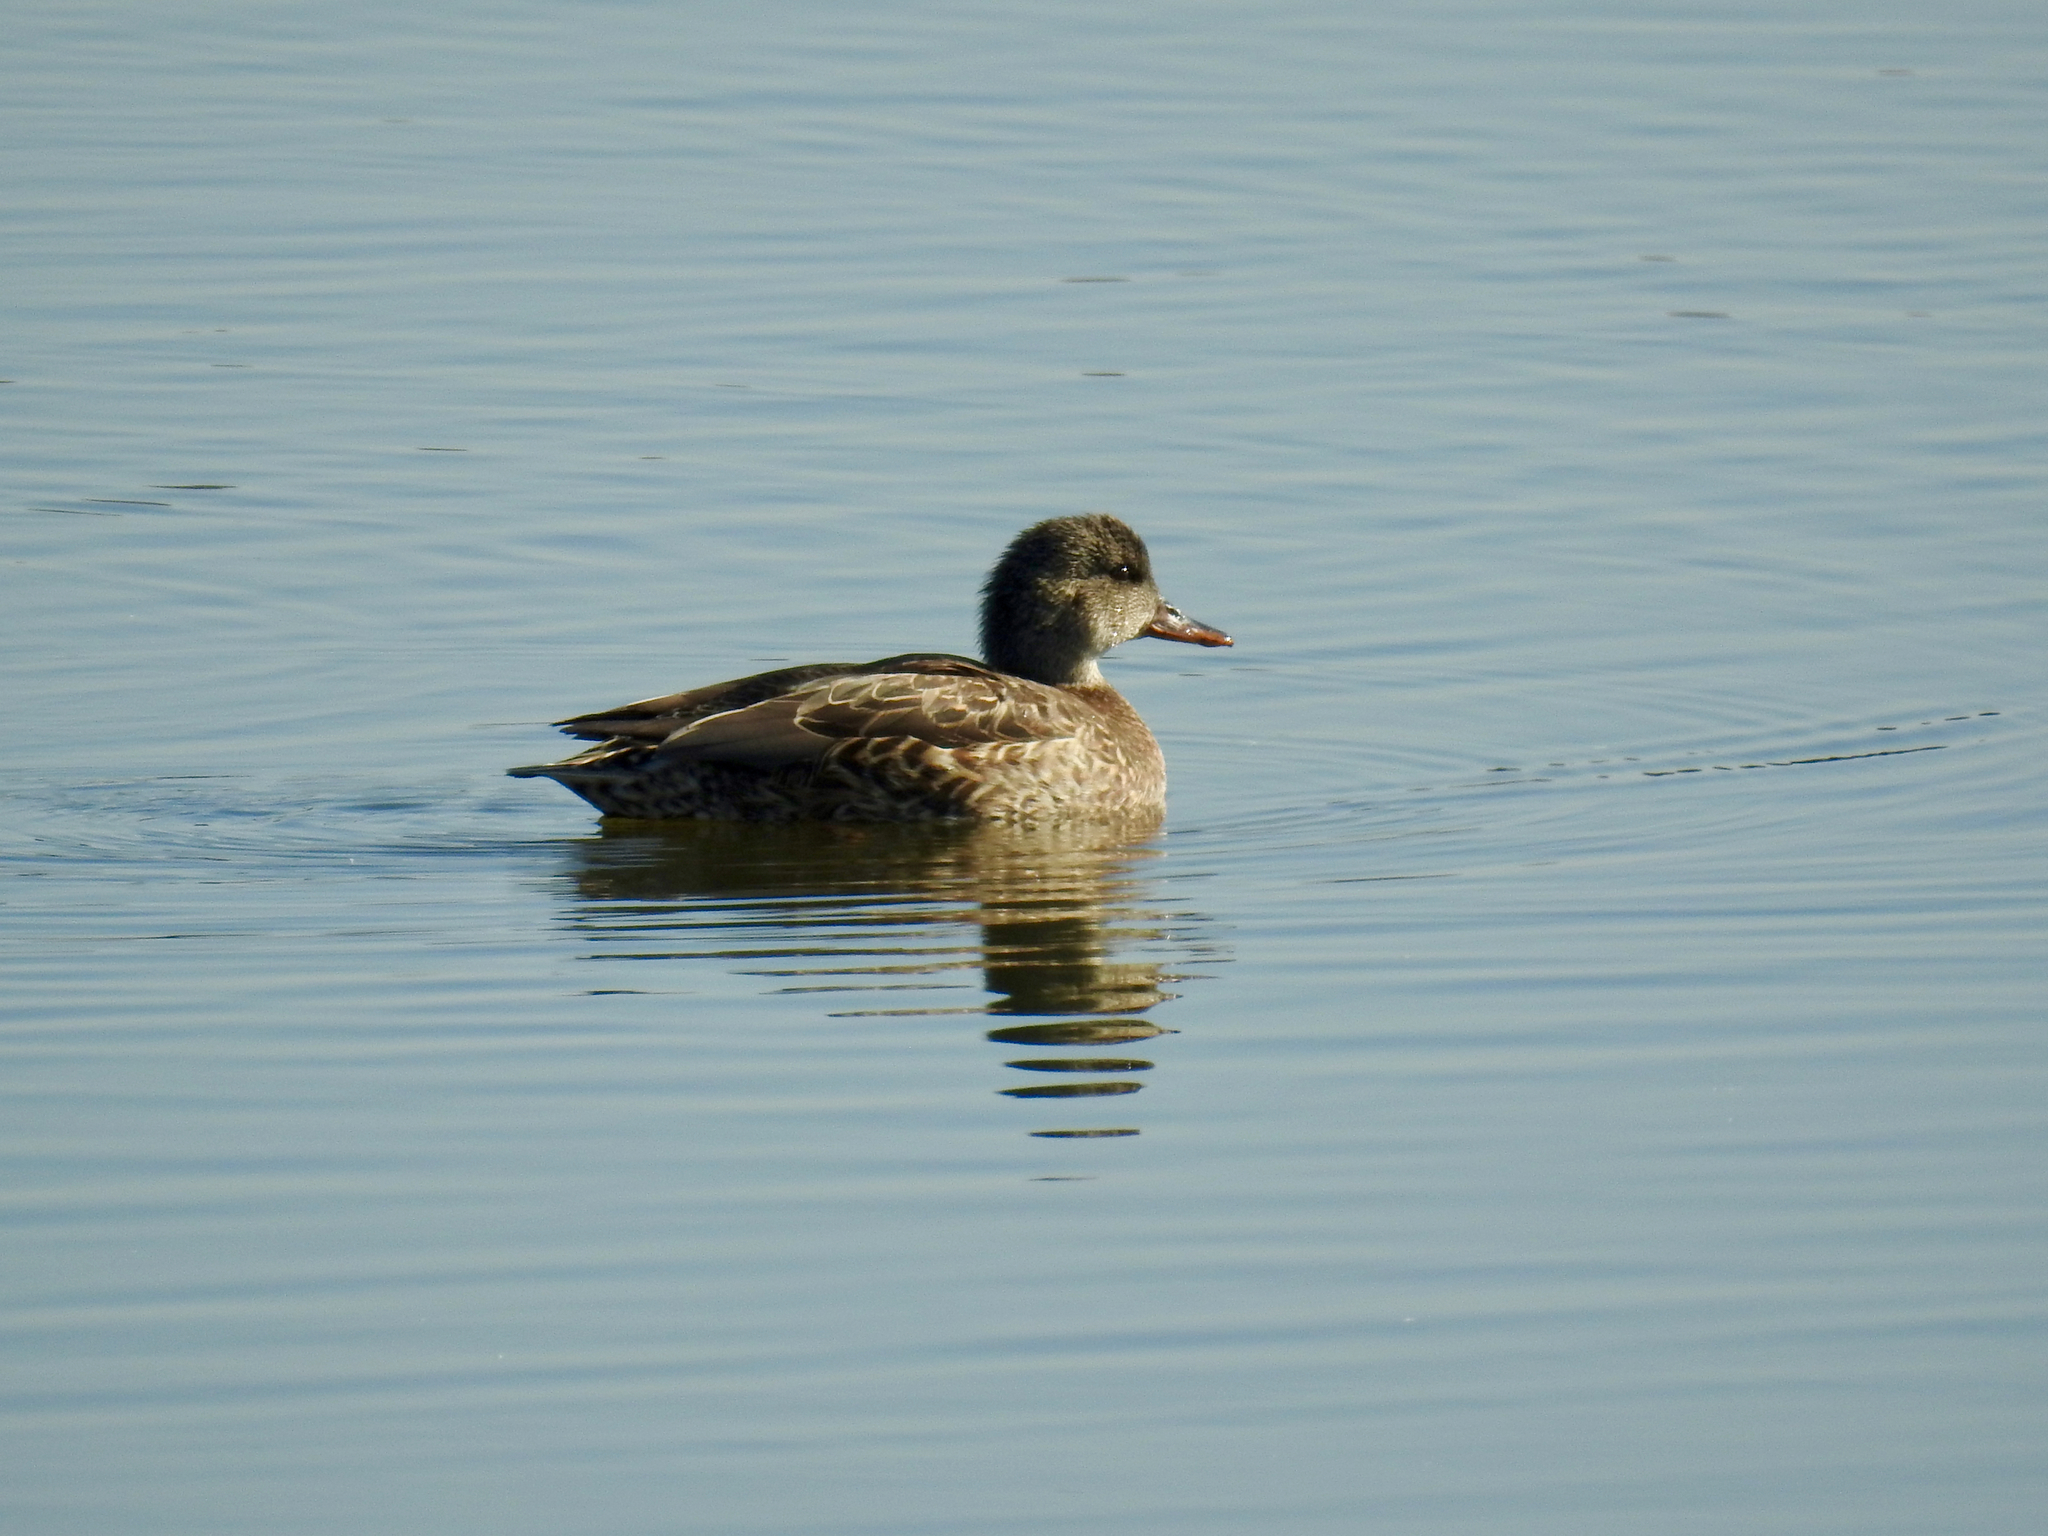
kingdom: Animalia
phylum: Chordata
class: Aves
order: Anseriformes
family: Anatidae
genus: Mareca
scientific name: Mareca strepera
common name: Gadwall
